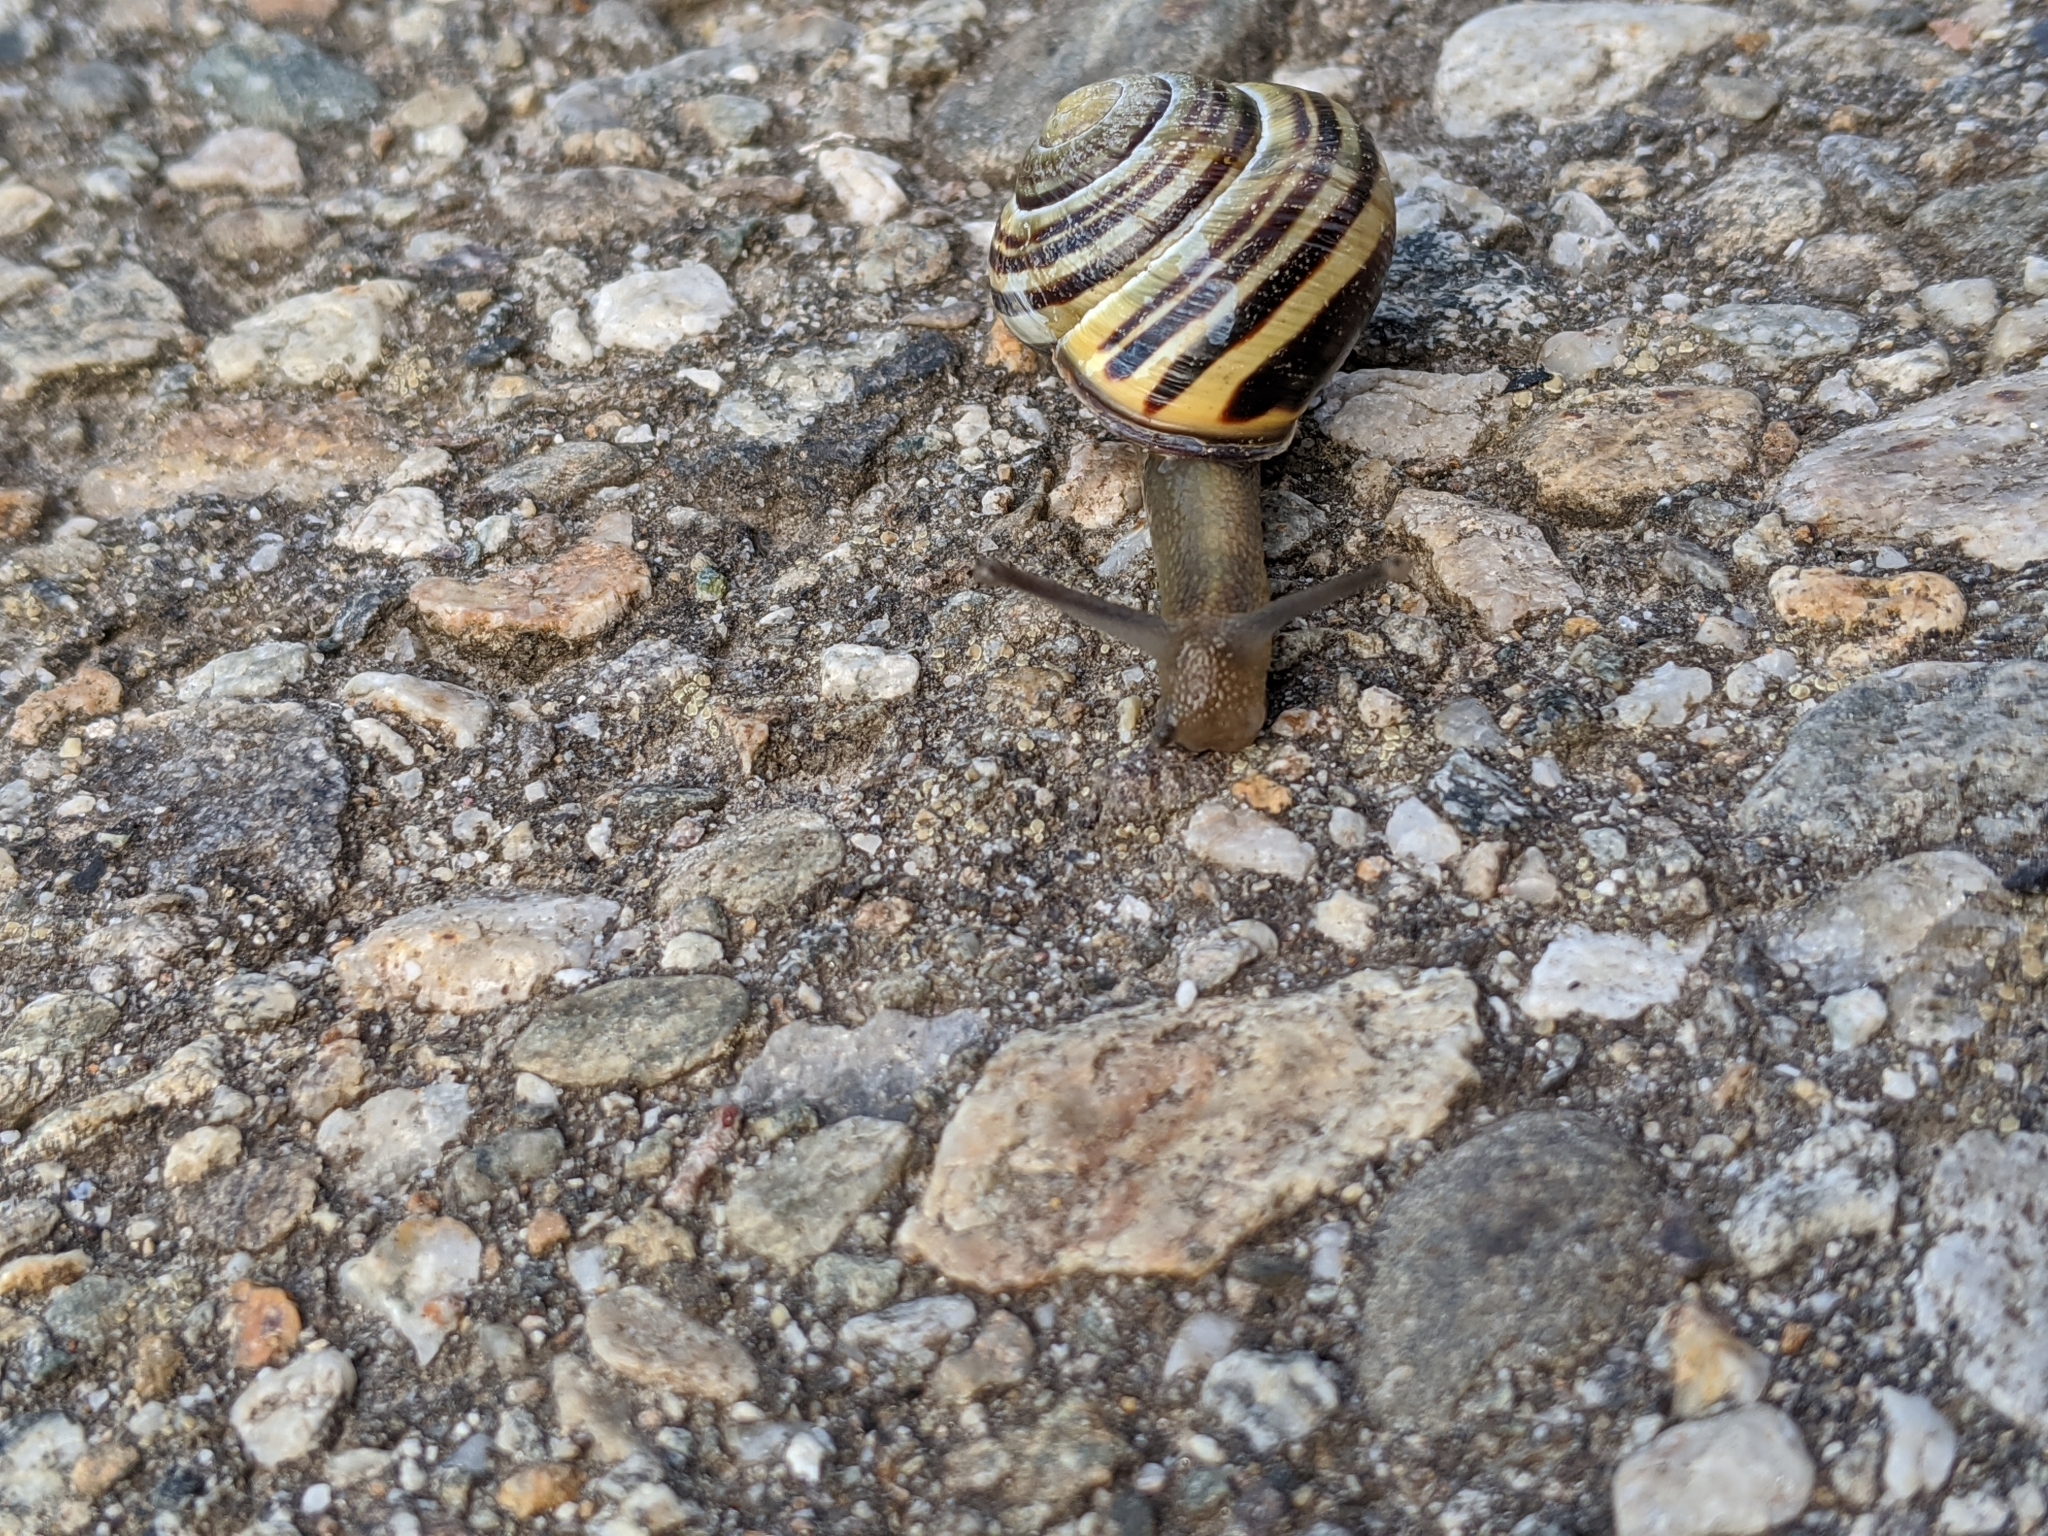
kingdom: Animalia
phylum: Mollusca
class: Gastropoda
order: Stylommatophora
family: Helicidae
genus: Cepaea
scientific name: Cepaea nemoralis
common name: Grovesnail
